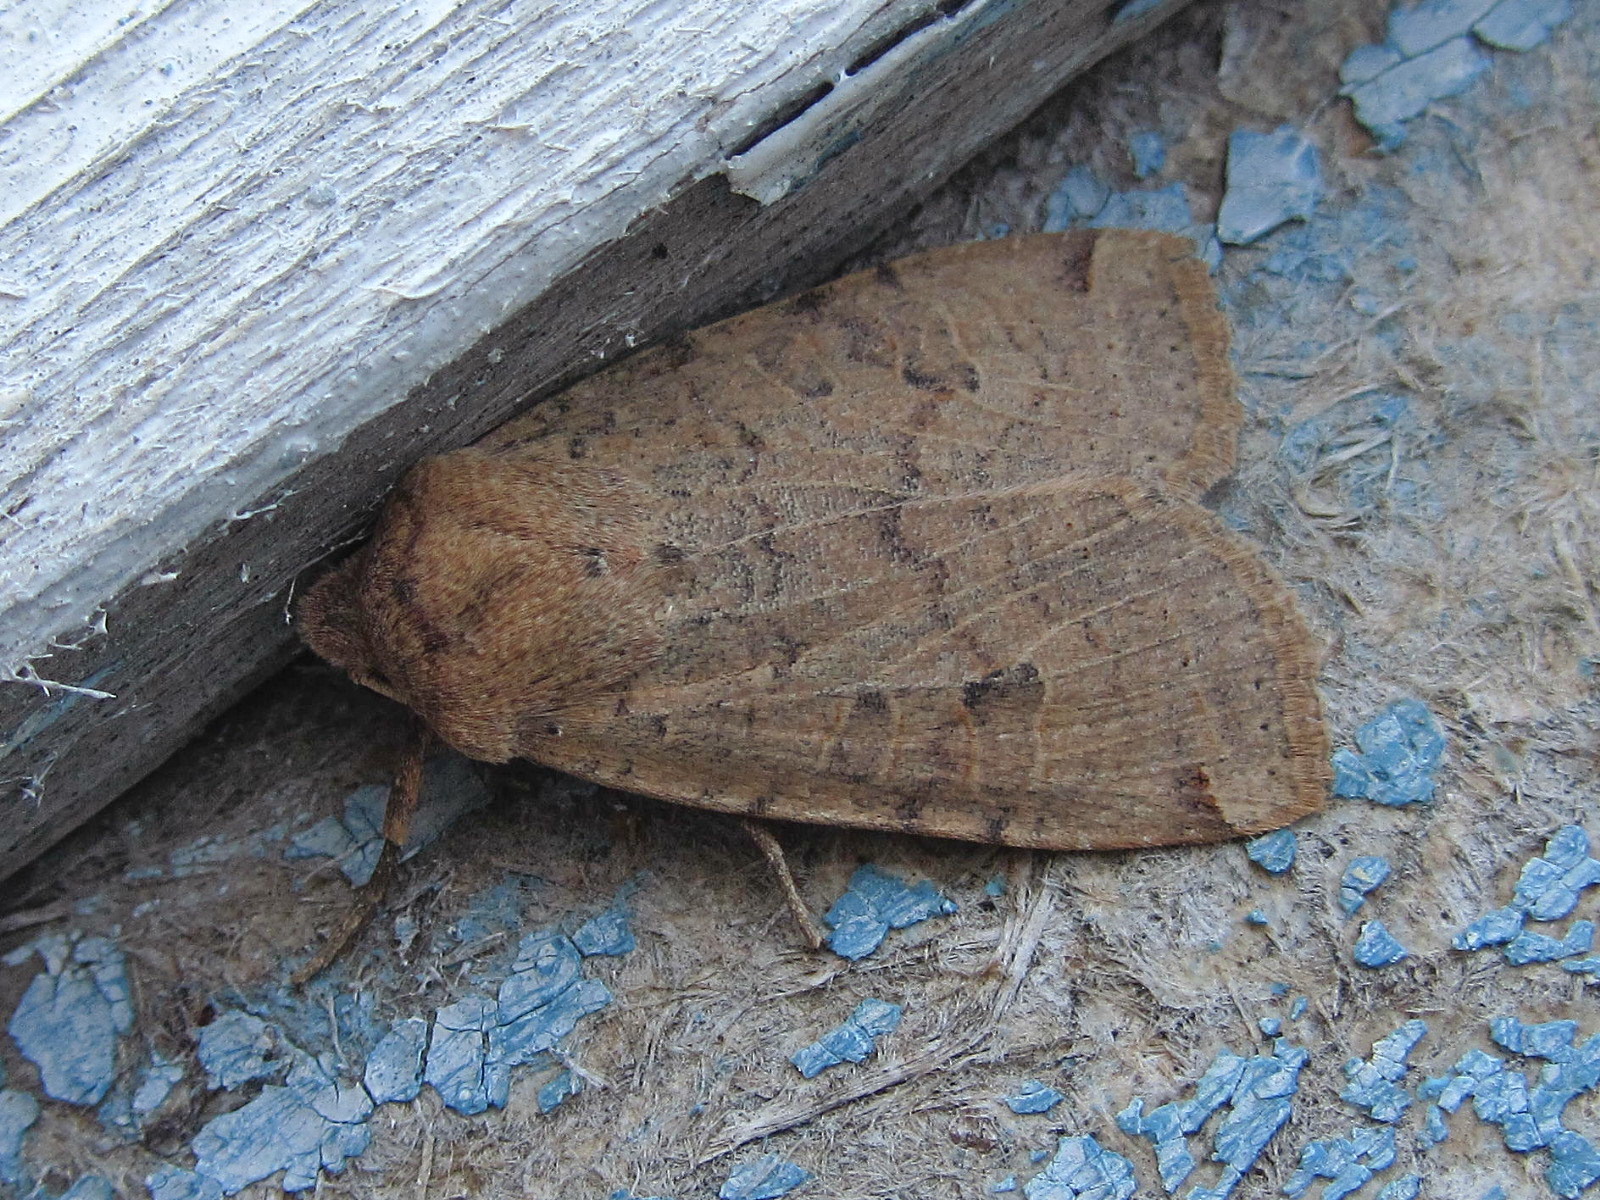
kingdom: Animalia
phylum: Arthropoda
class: Insecta
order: Lepidoptera
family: Noctuidae
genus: Conistra
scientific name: Conistra veronicae
